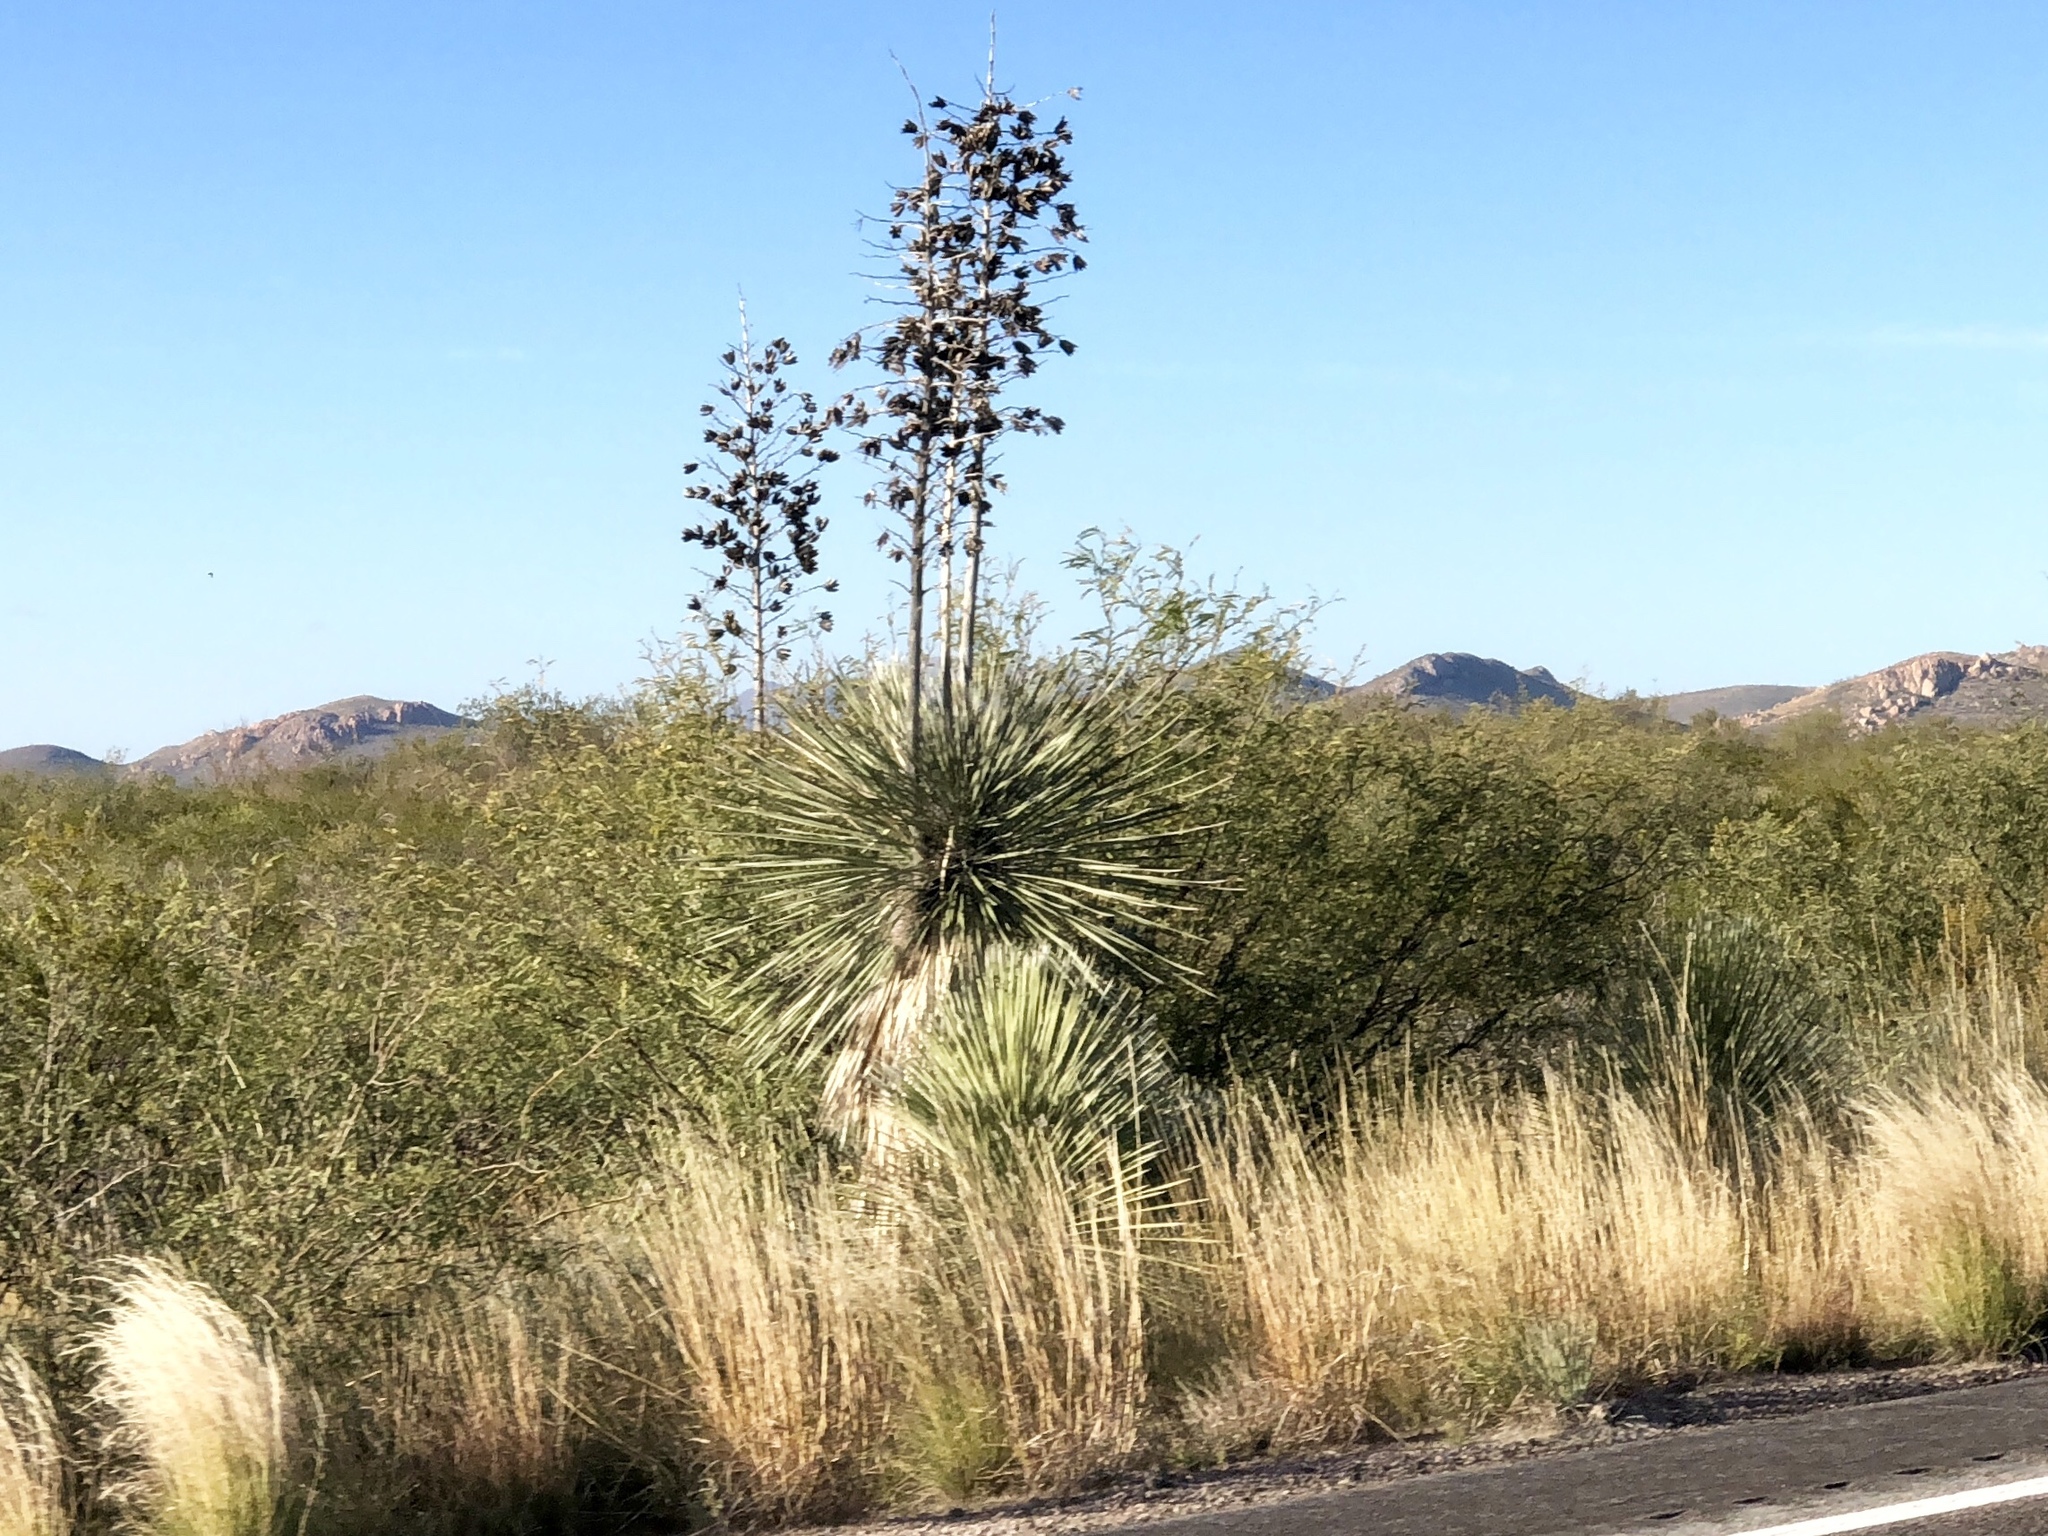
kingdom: Plantae
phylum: Tracheophyta
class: Liliopsida
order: Asparagales
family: Asparagaceae
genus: Yucca
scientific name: Yucca elata
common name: Palmella
